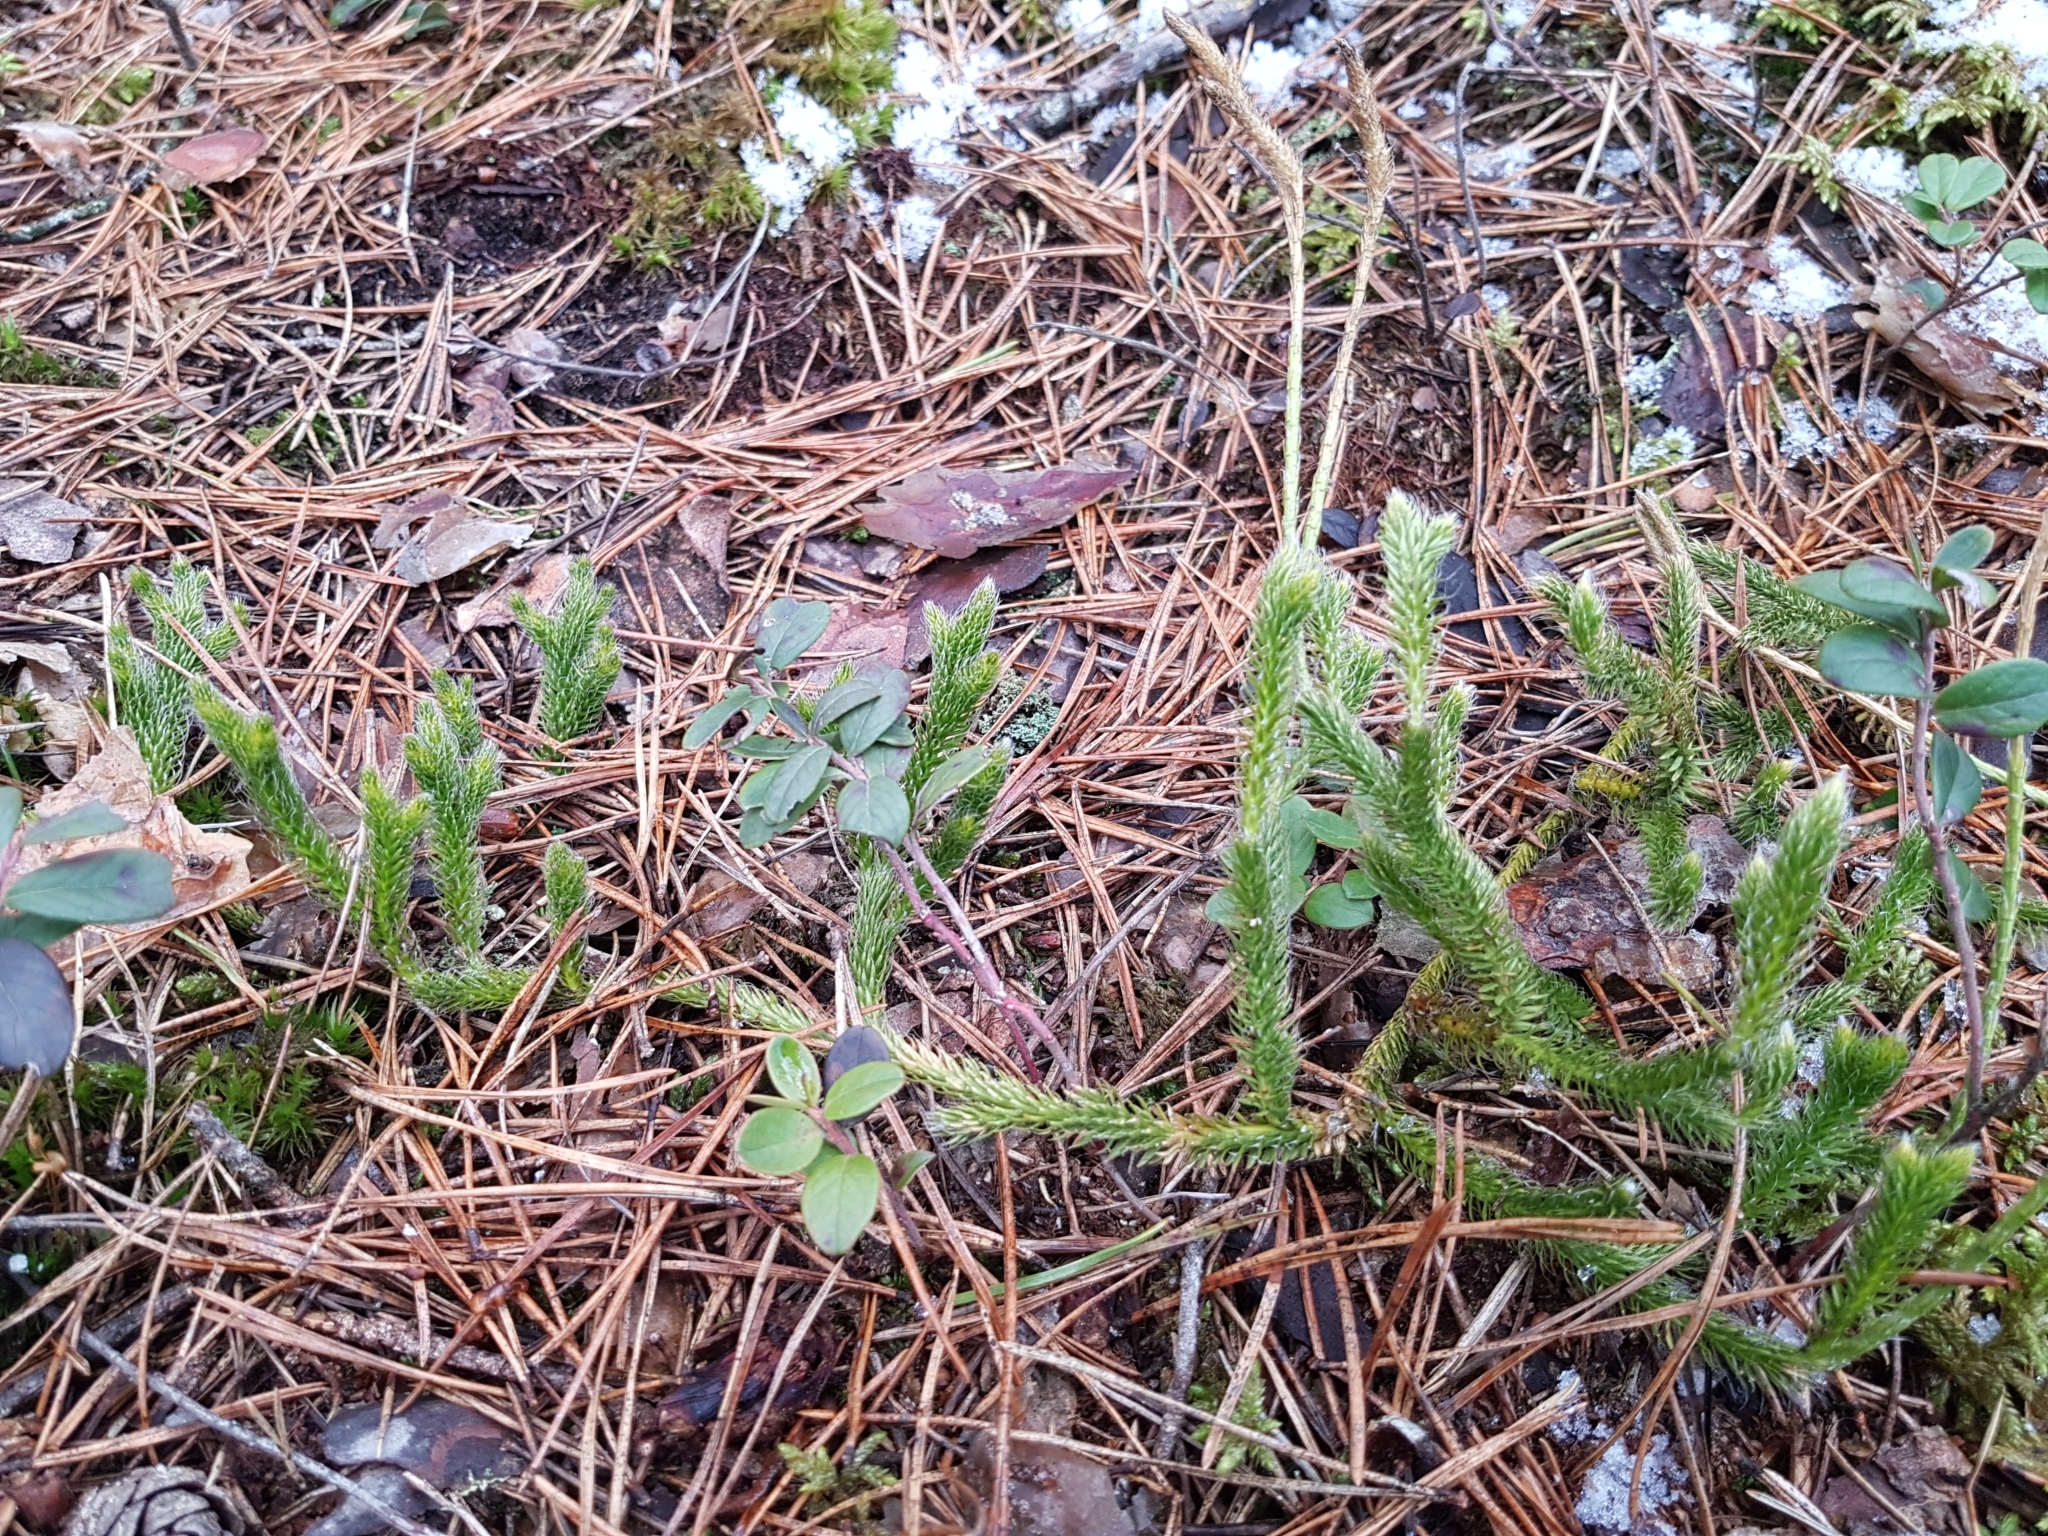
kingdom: Plantae
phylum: Tracheophyta
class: Lycopodiopsida
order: Lycopodiales
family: Lycopodiaceae
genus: Lycopodium
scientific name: Lycopodium clavatum
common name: Stag's-horn clubmoss
